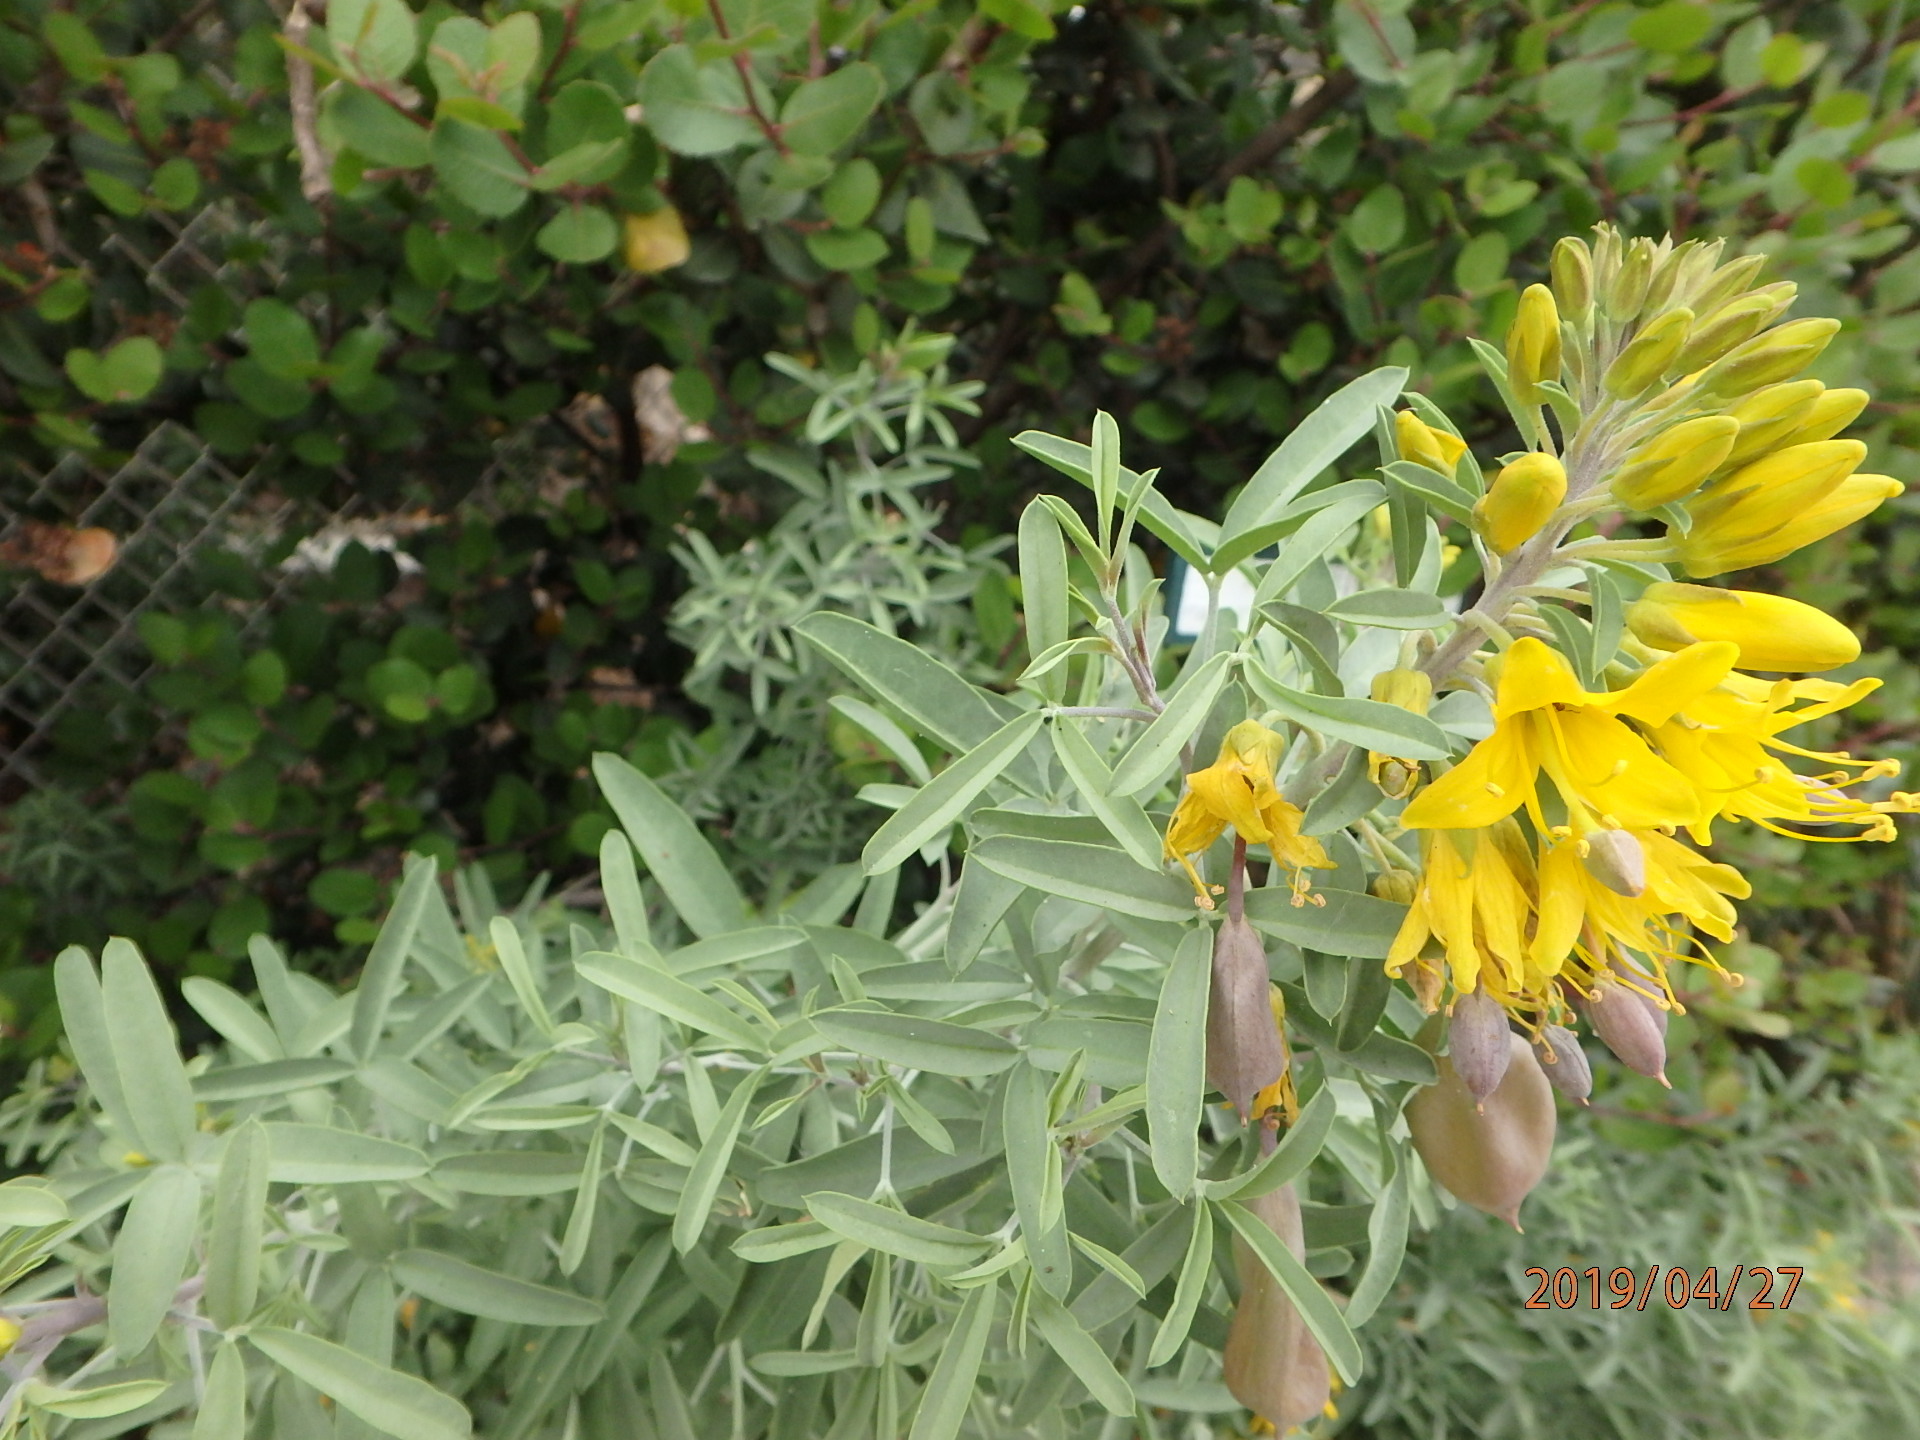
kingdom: Plantae
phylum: Tracheophyta
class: Magnoliopsida
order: Brassicales
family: Cleomaceae
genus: Cleomella
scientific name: Cleomella arborea
